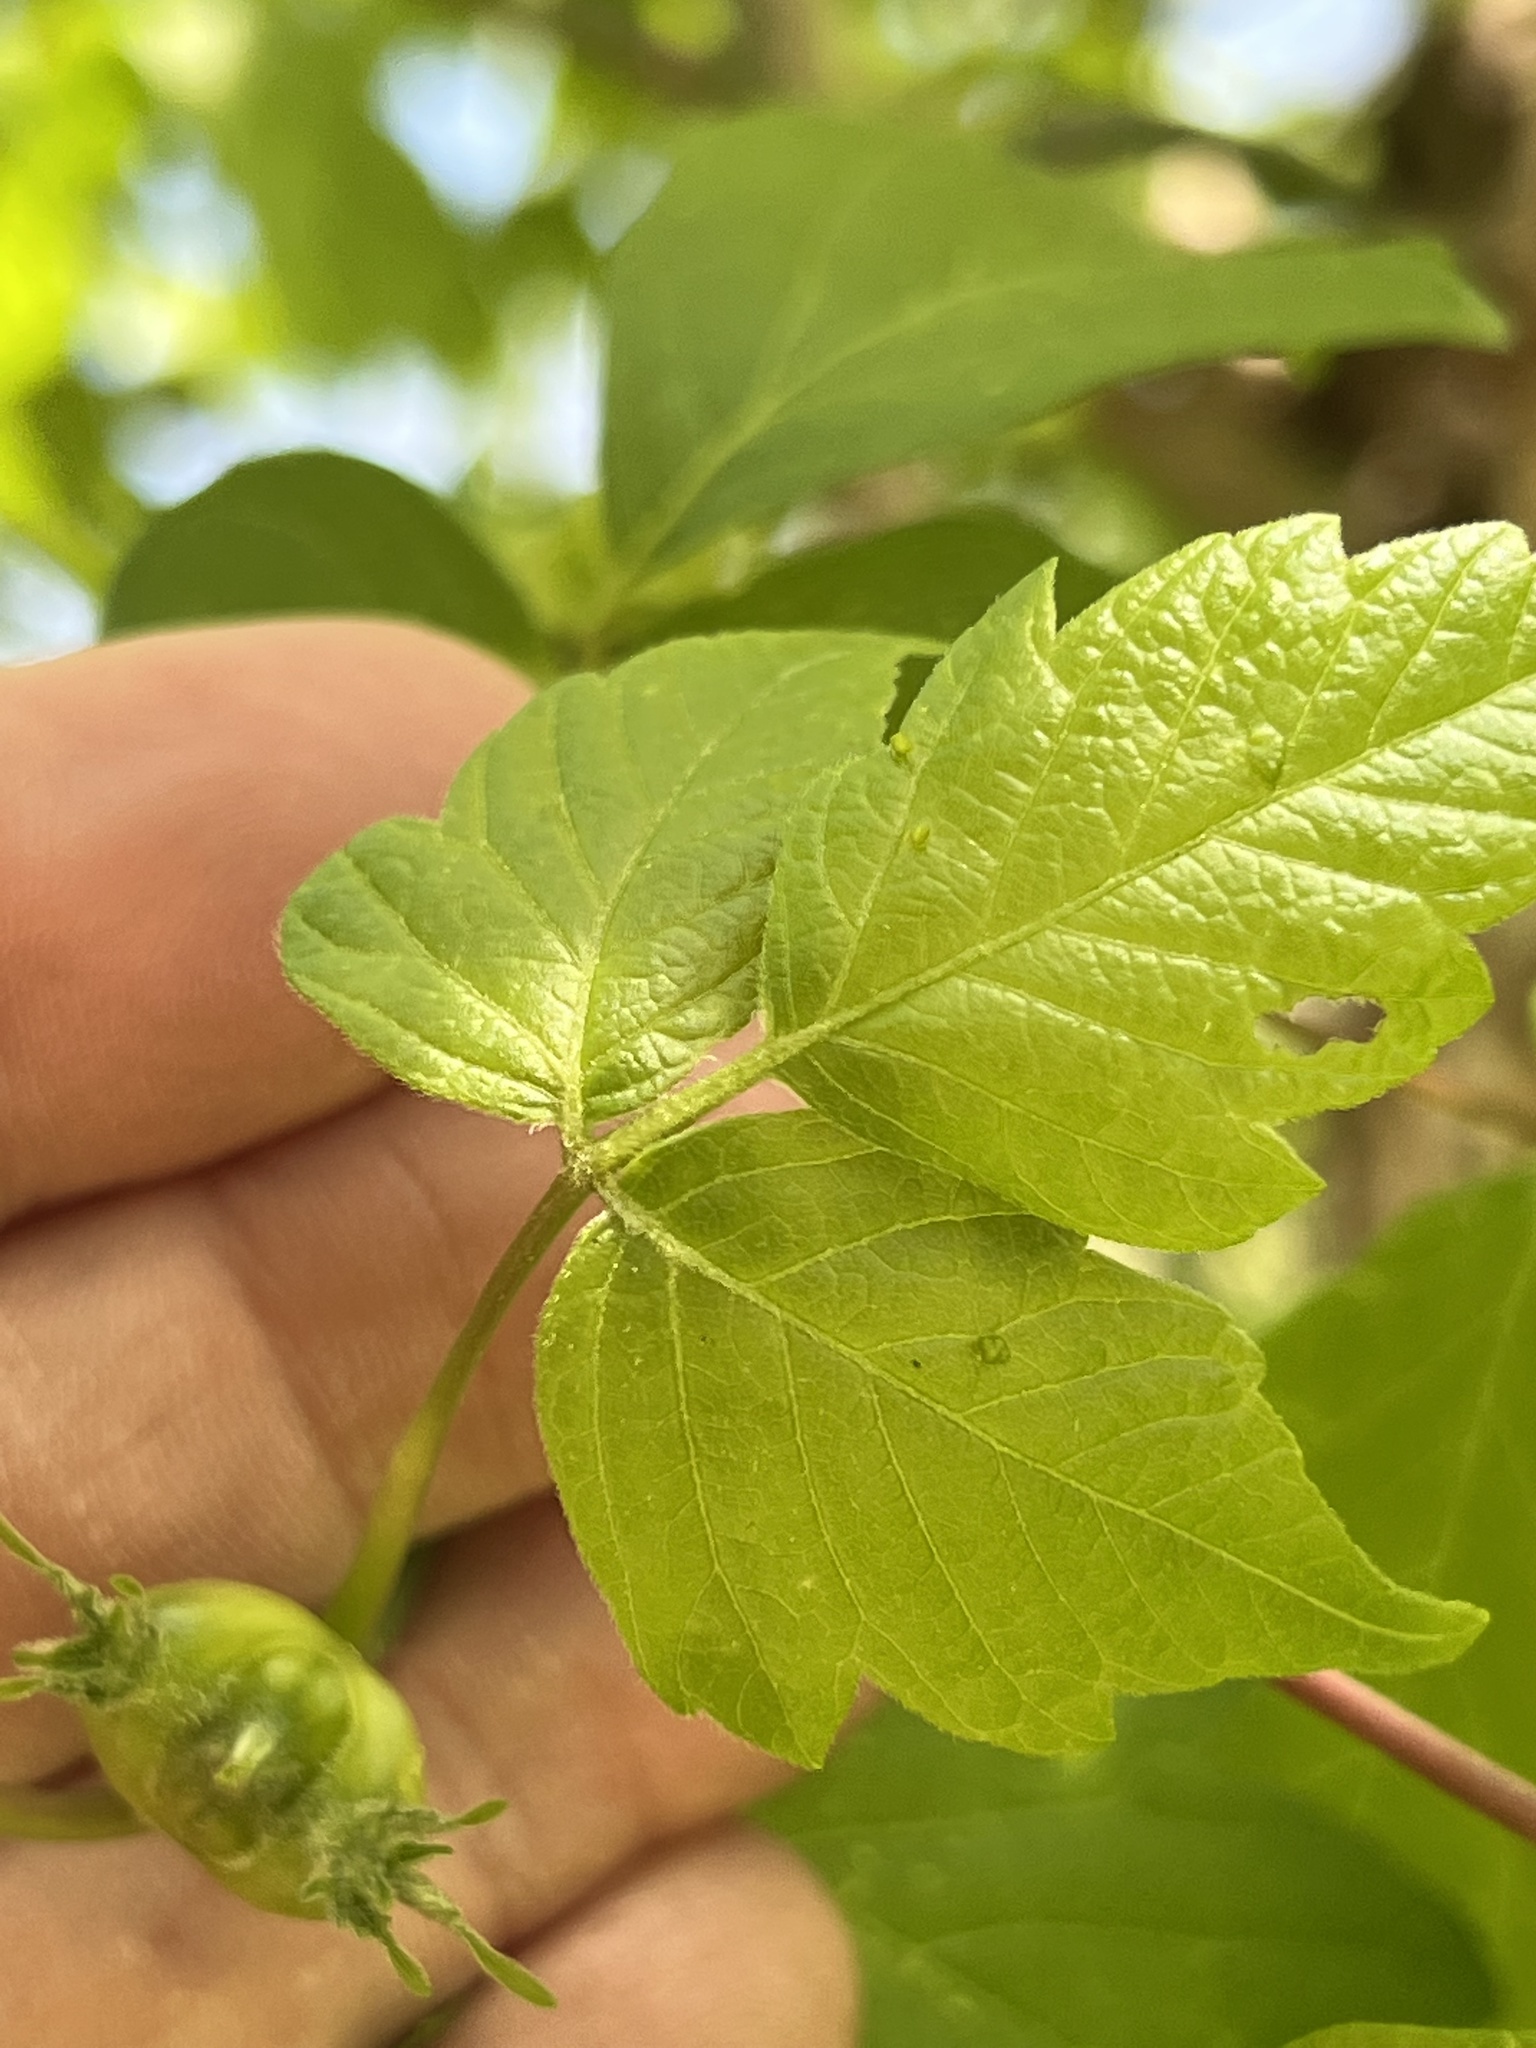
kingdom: Animalia
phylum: Arthropoda
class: Insecta
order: Diptera
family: Cecidomyiidae
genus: Contarinia
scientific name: Contarinia negundinis
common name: Boxelder budgall midge
